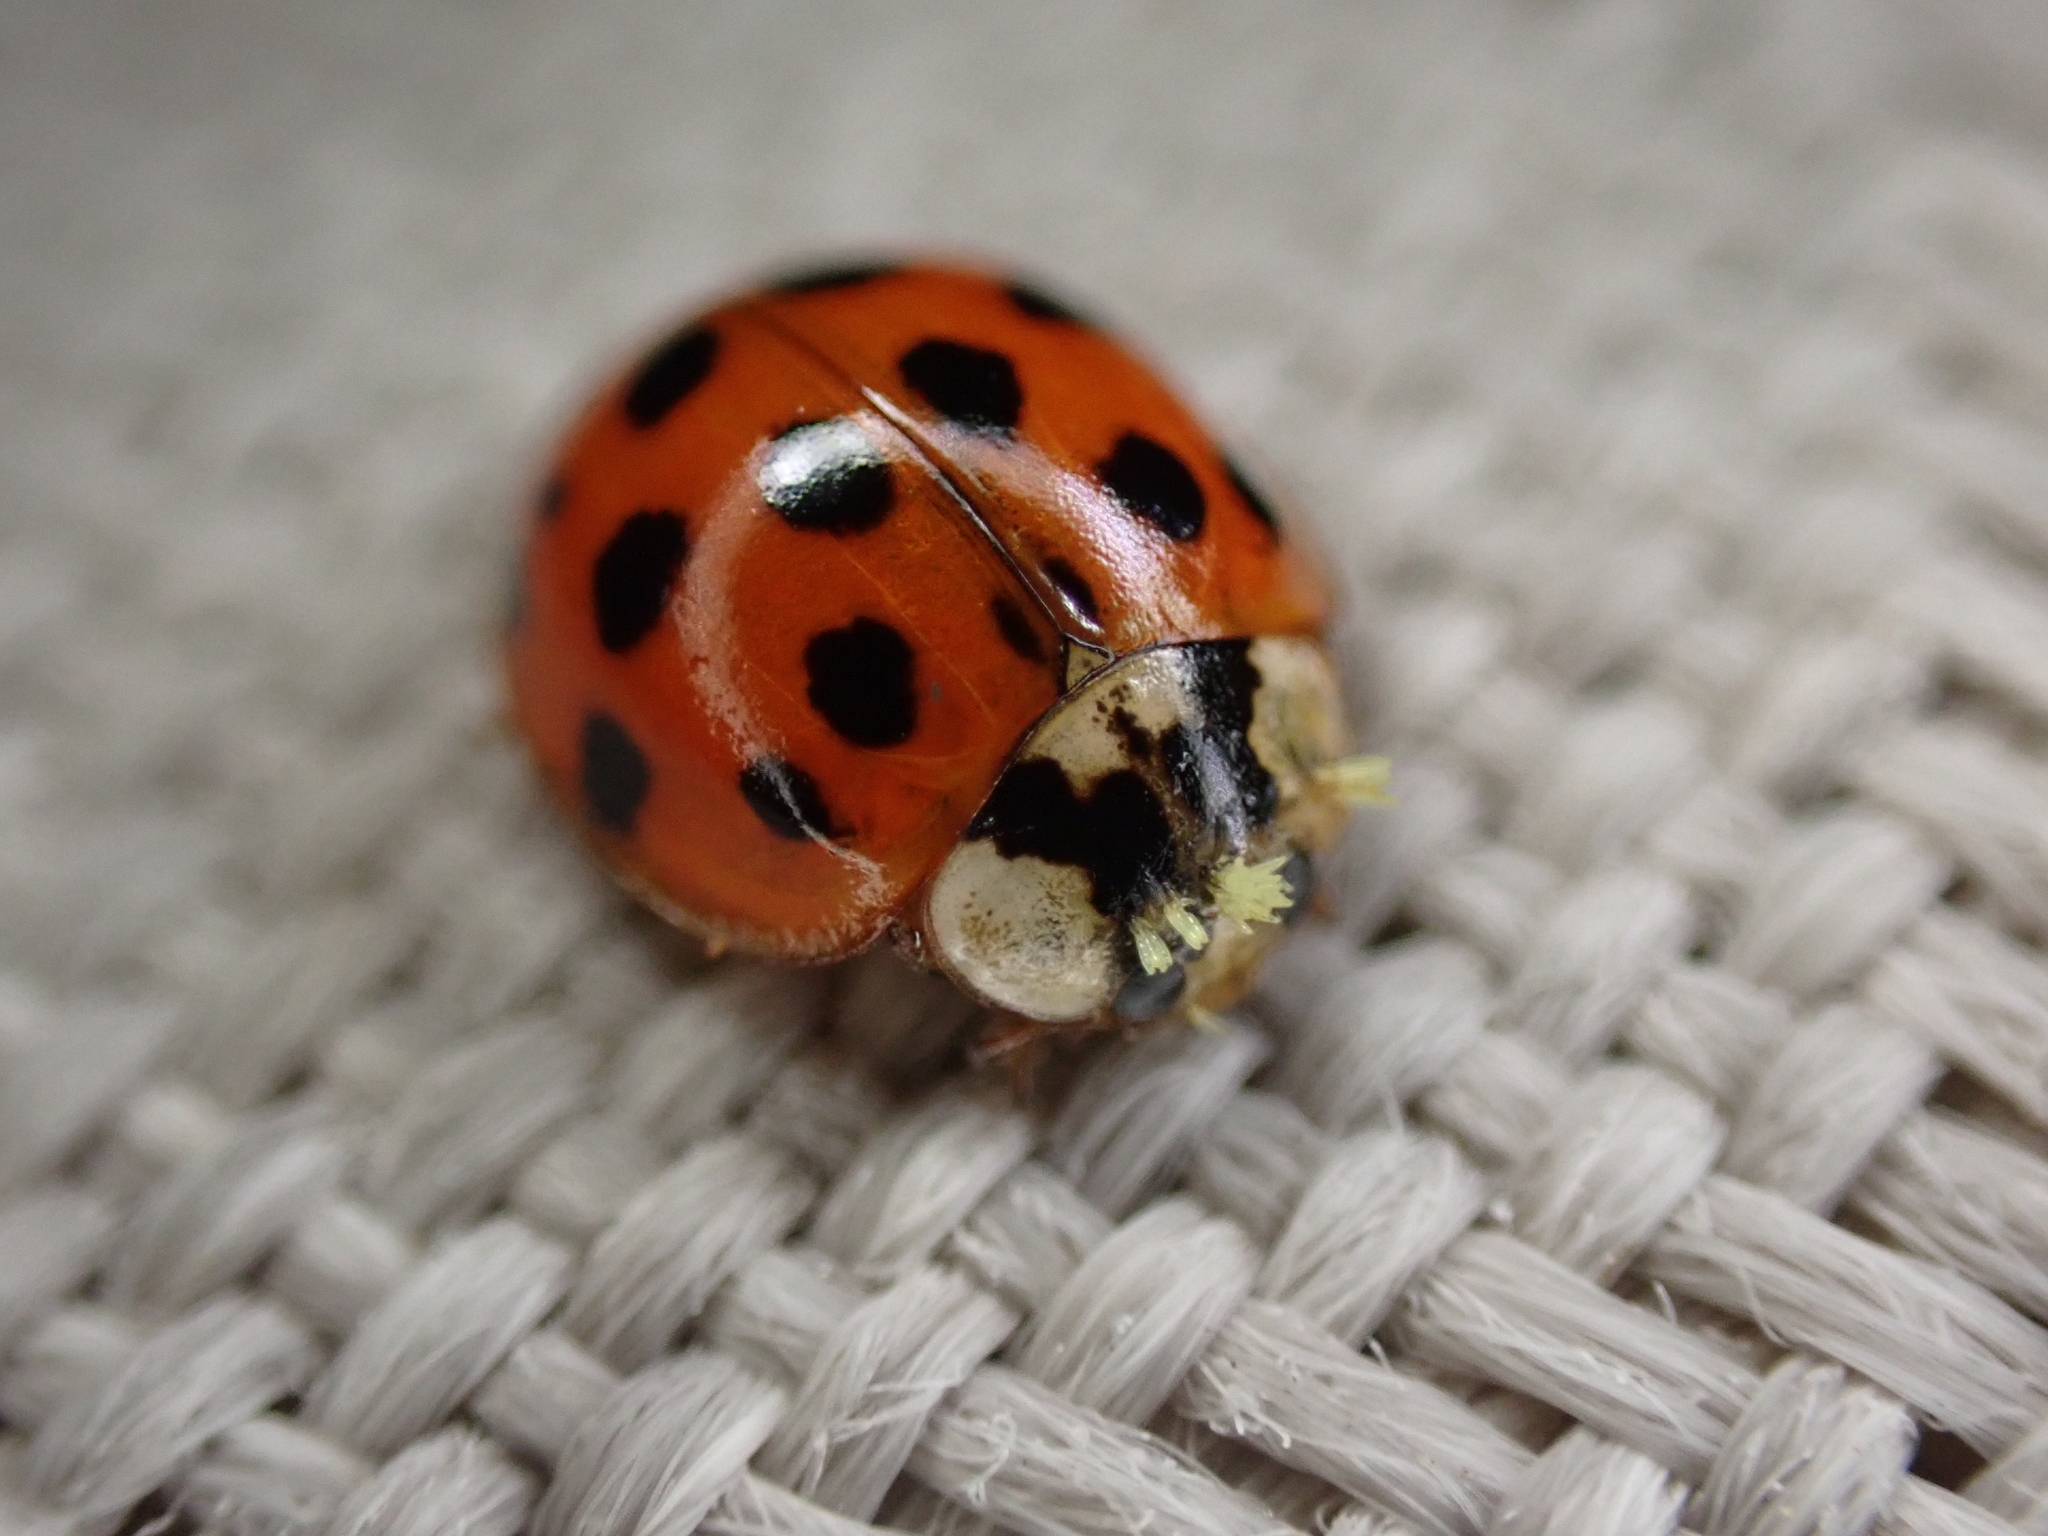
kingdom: Animalia
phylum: Arthropoda
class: Insecta
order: Coleoptera
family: Coccinellidae
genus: Harmonia
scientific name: Harmonia axyridis
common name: Harlequin ladybird
